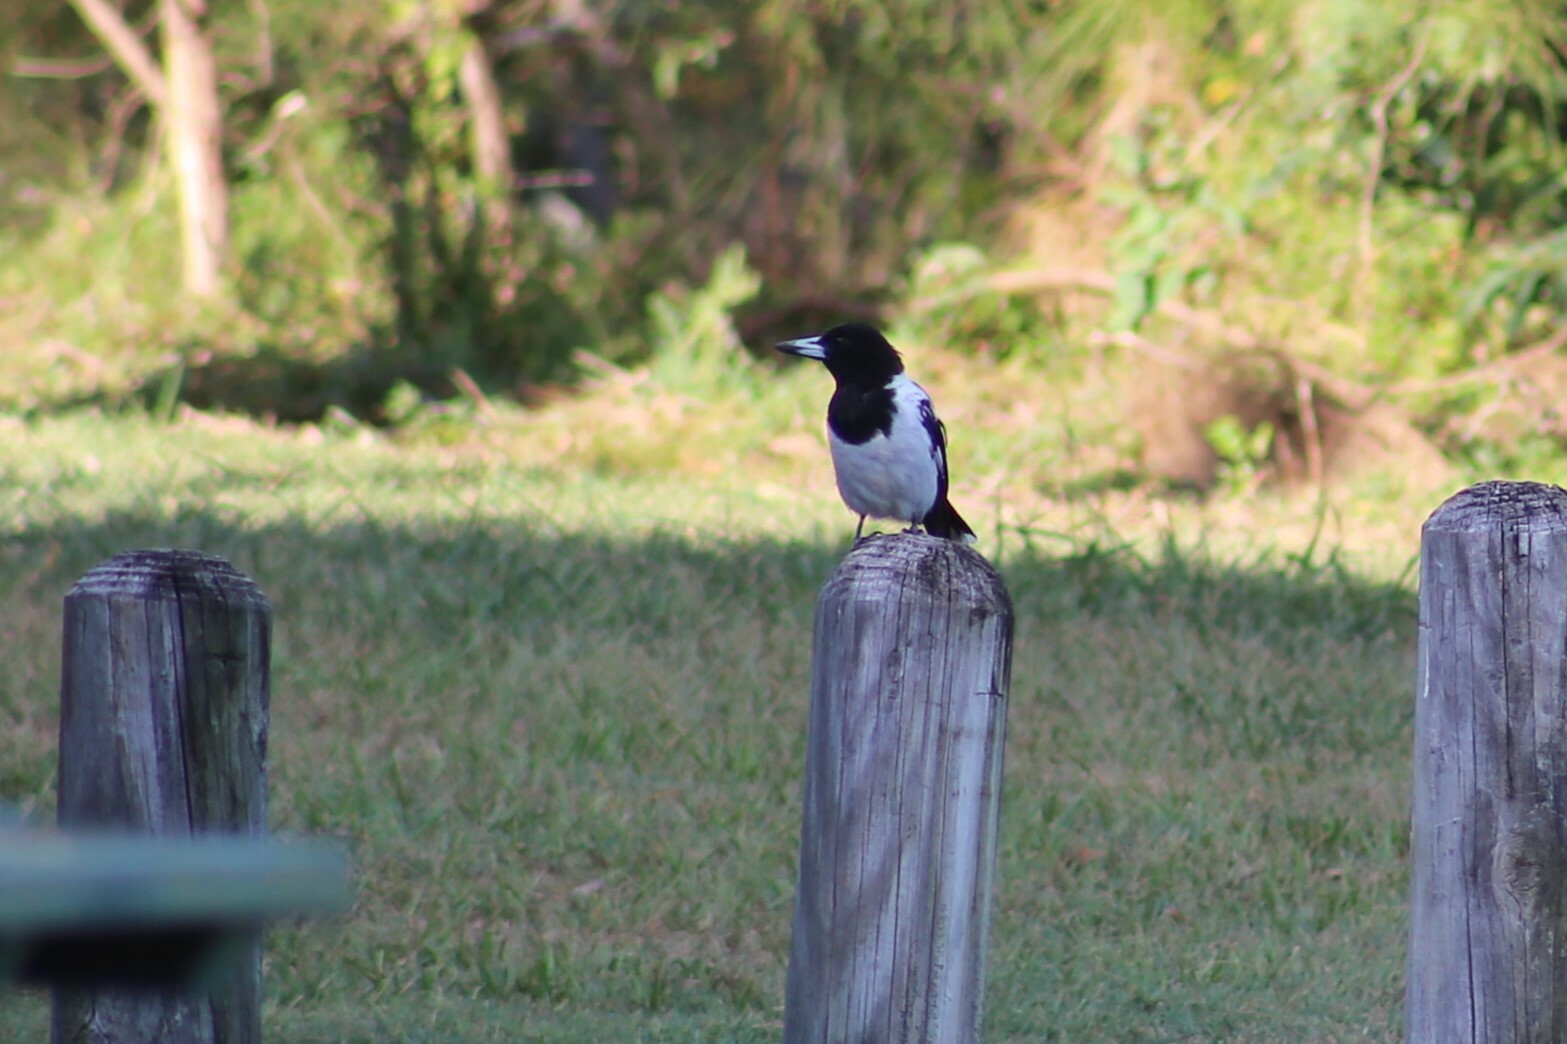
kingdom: Animalia
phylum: Chordata
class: Aves
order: Passeriformes
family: Cracticidae
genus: Cracticus
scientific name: Cracticus nigrogularis
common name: Pied butcherbird
